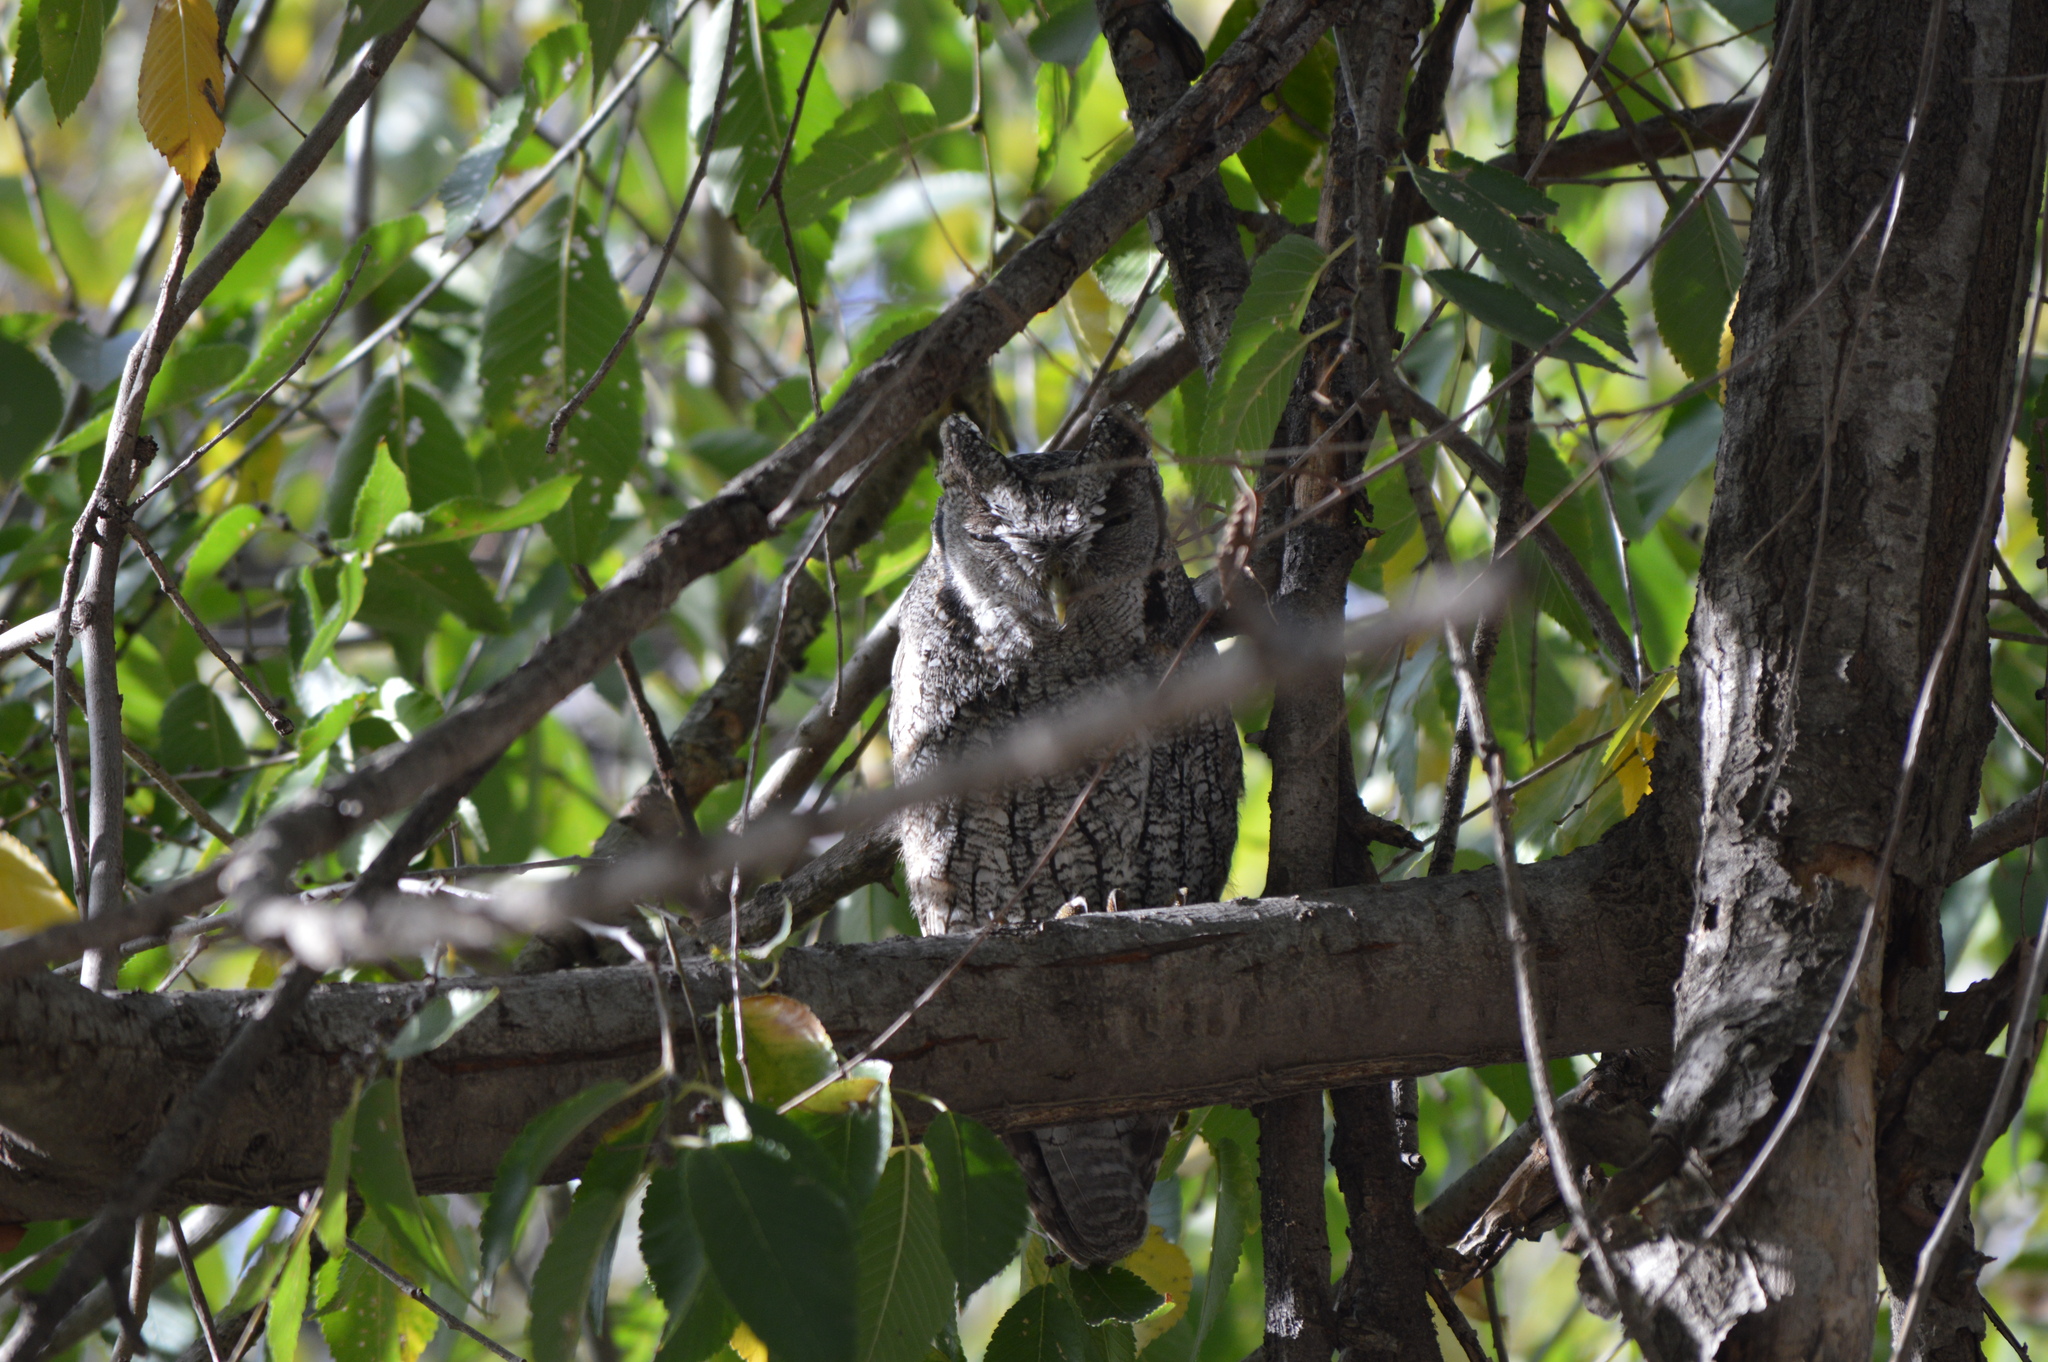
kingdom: Animalia
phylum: Chordata
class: Aves
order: Strigiformes
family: Strigidae
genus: Megascops
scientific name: Megascops choliba
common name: Tropical screech-owl
